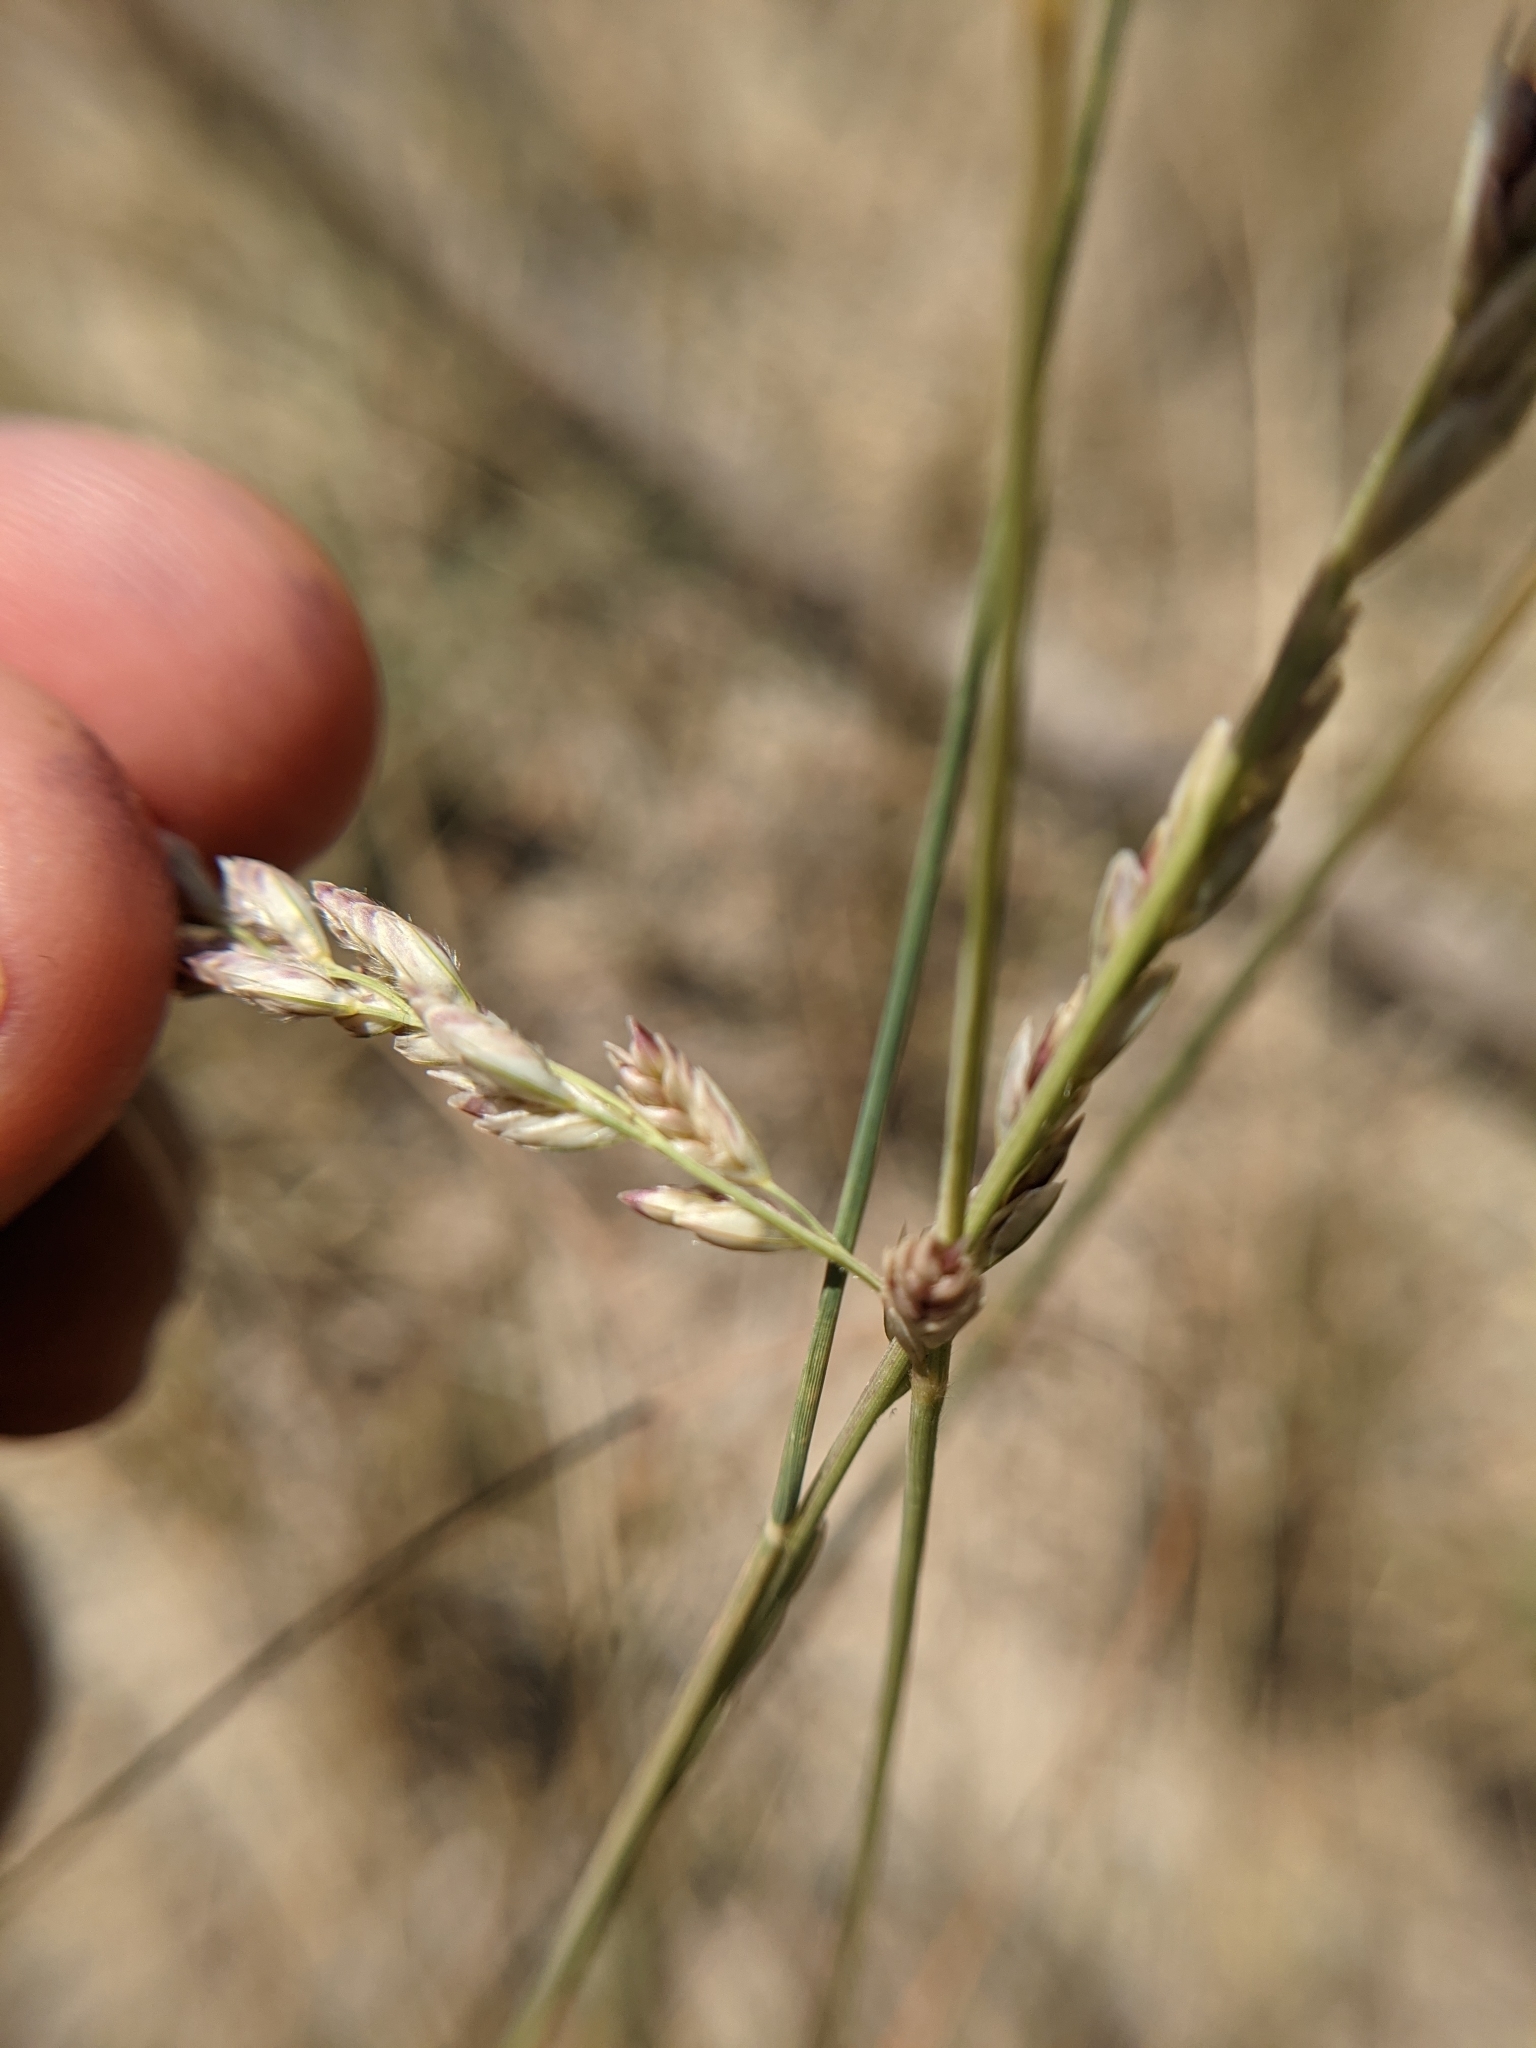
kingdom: Plantae
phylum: Tracheophyta
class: Liliopsida
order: Poales
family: Poaceae
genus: Tridentopsis
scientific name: Tridentopsis mutica
